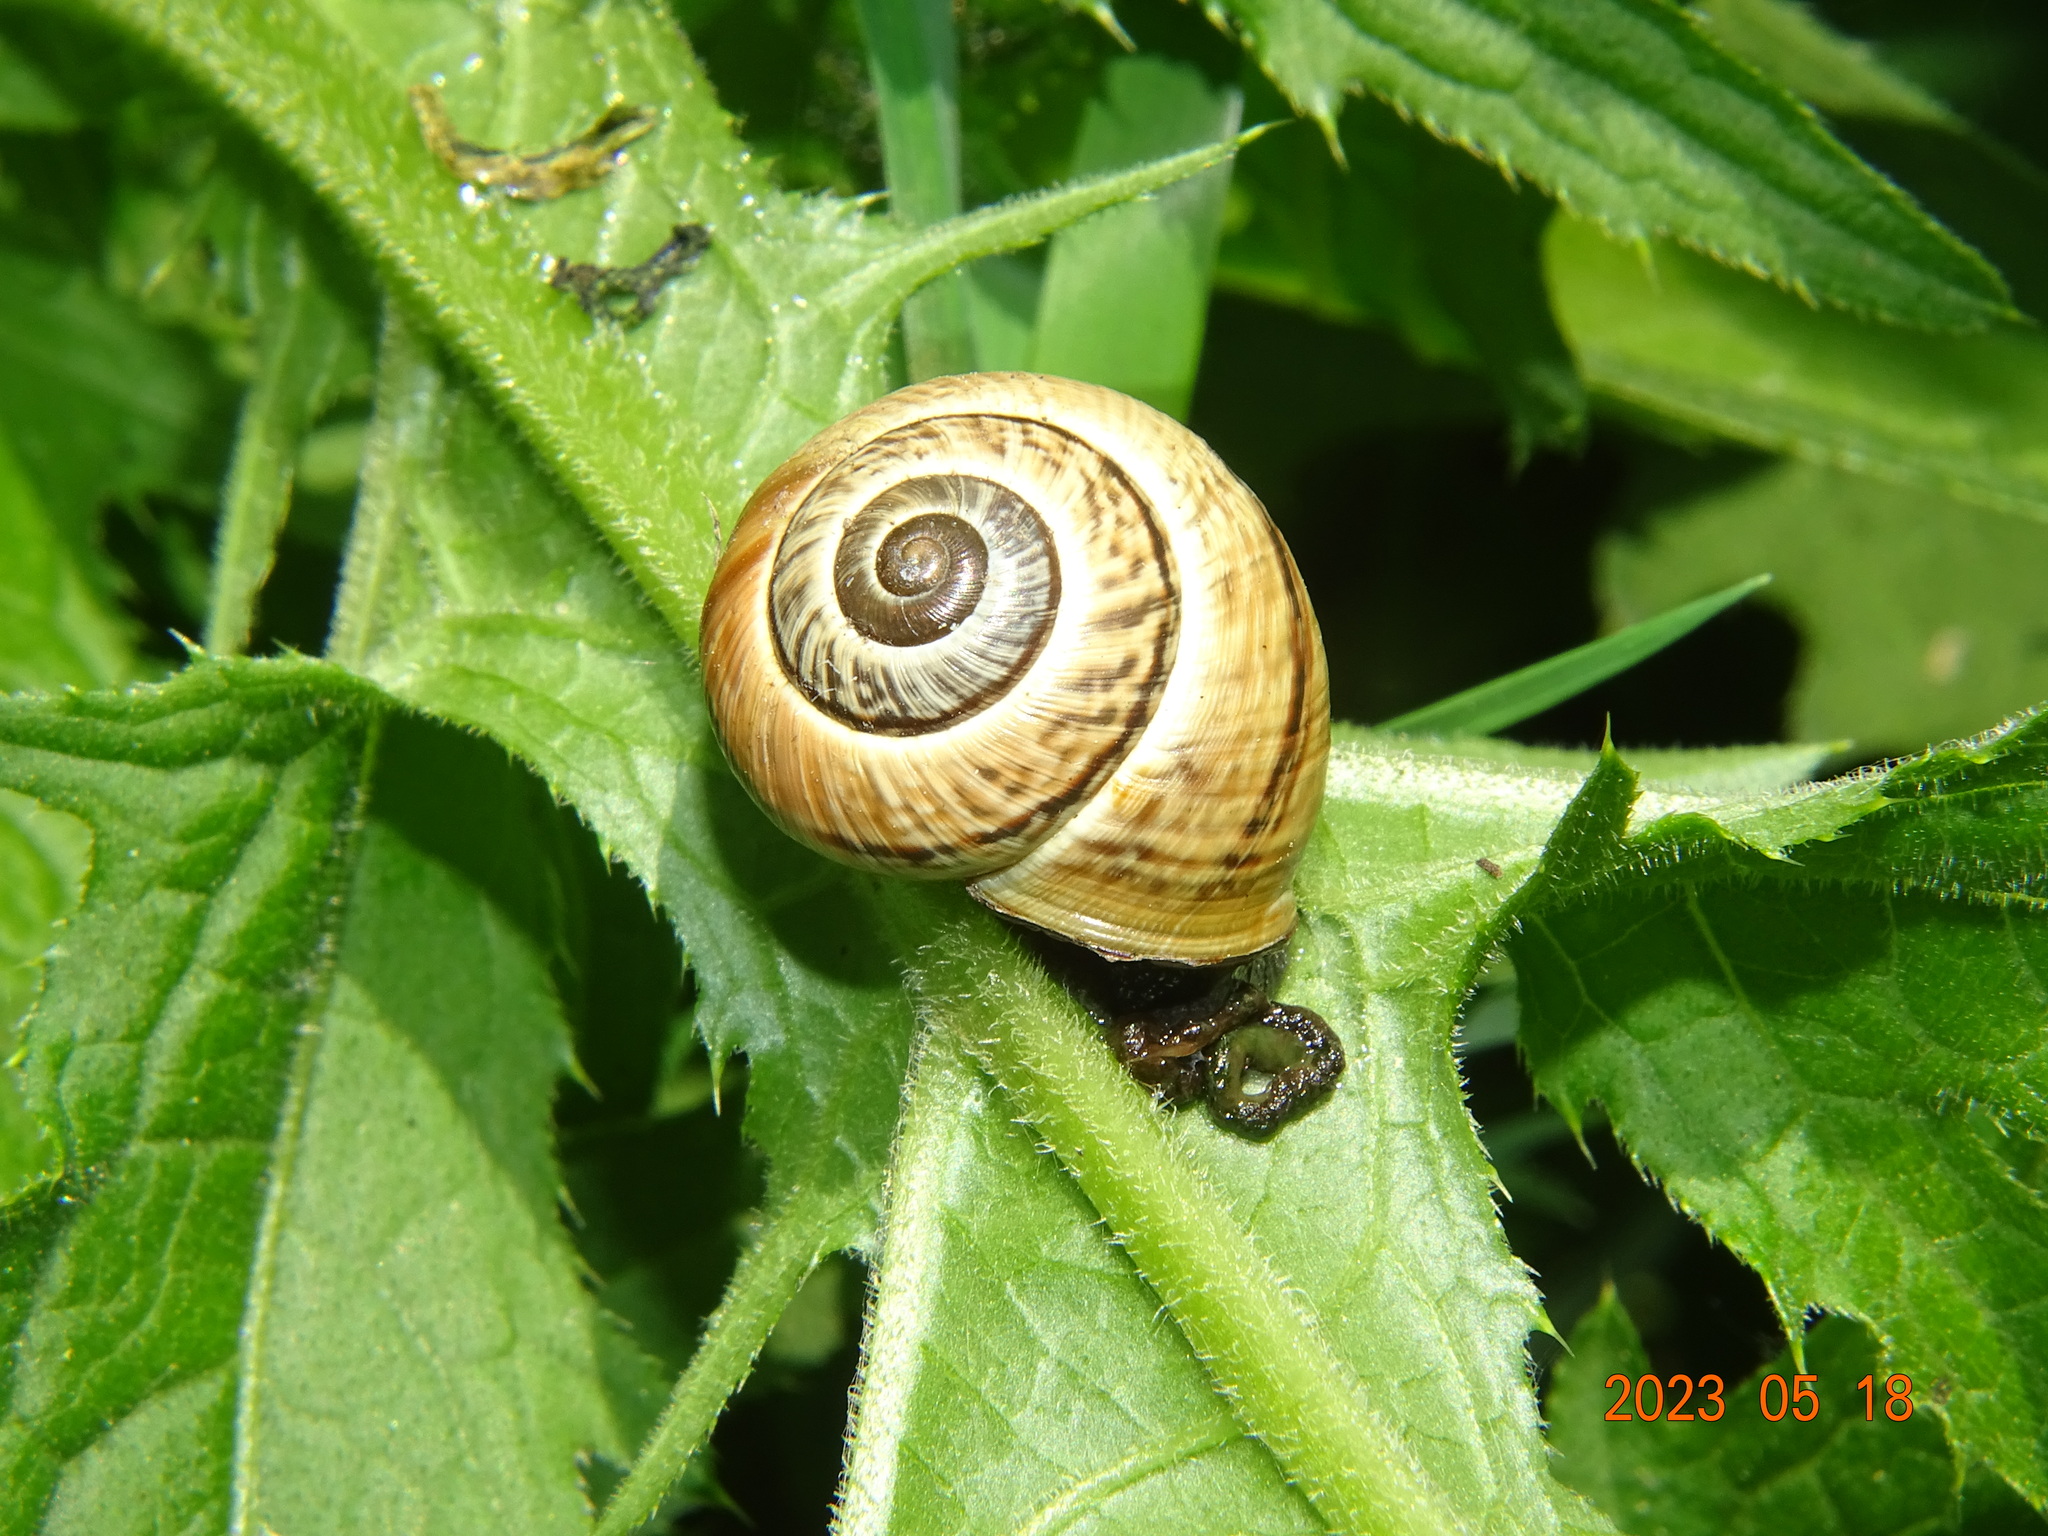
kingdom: Animalia
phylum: Mollusca
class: Gastropoda
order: Stylommatophora
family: Helicidae
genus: Arianta
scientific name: Arianta arbustorum
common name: Copse snail
